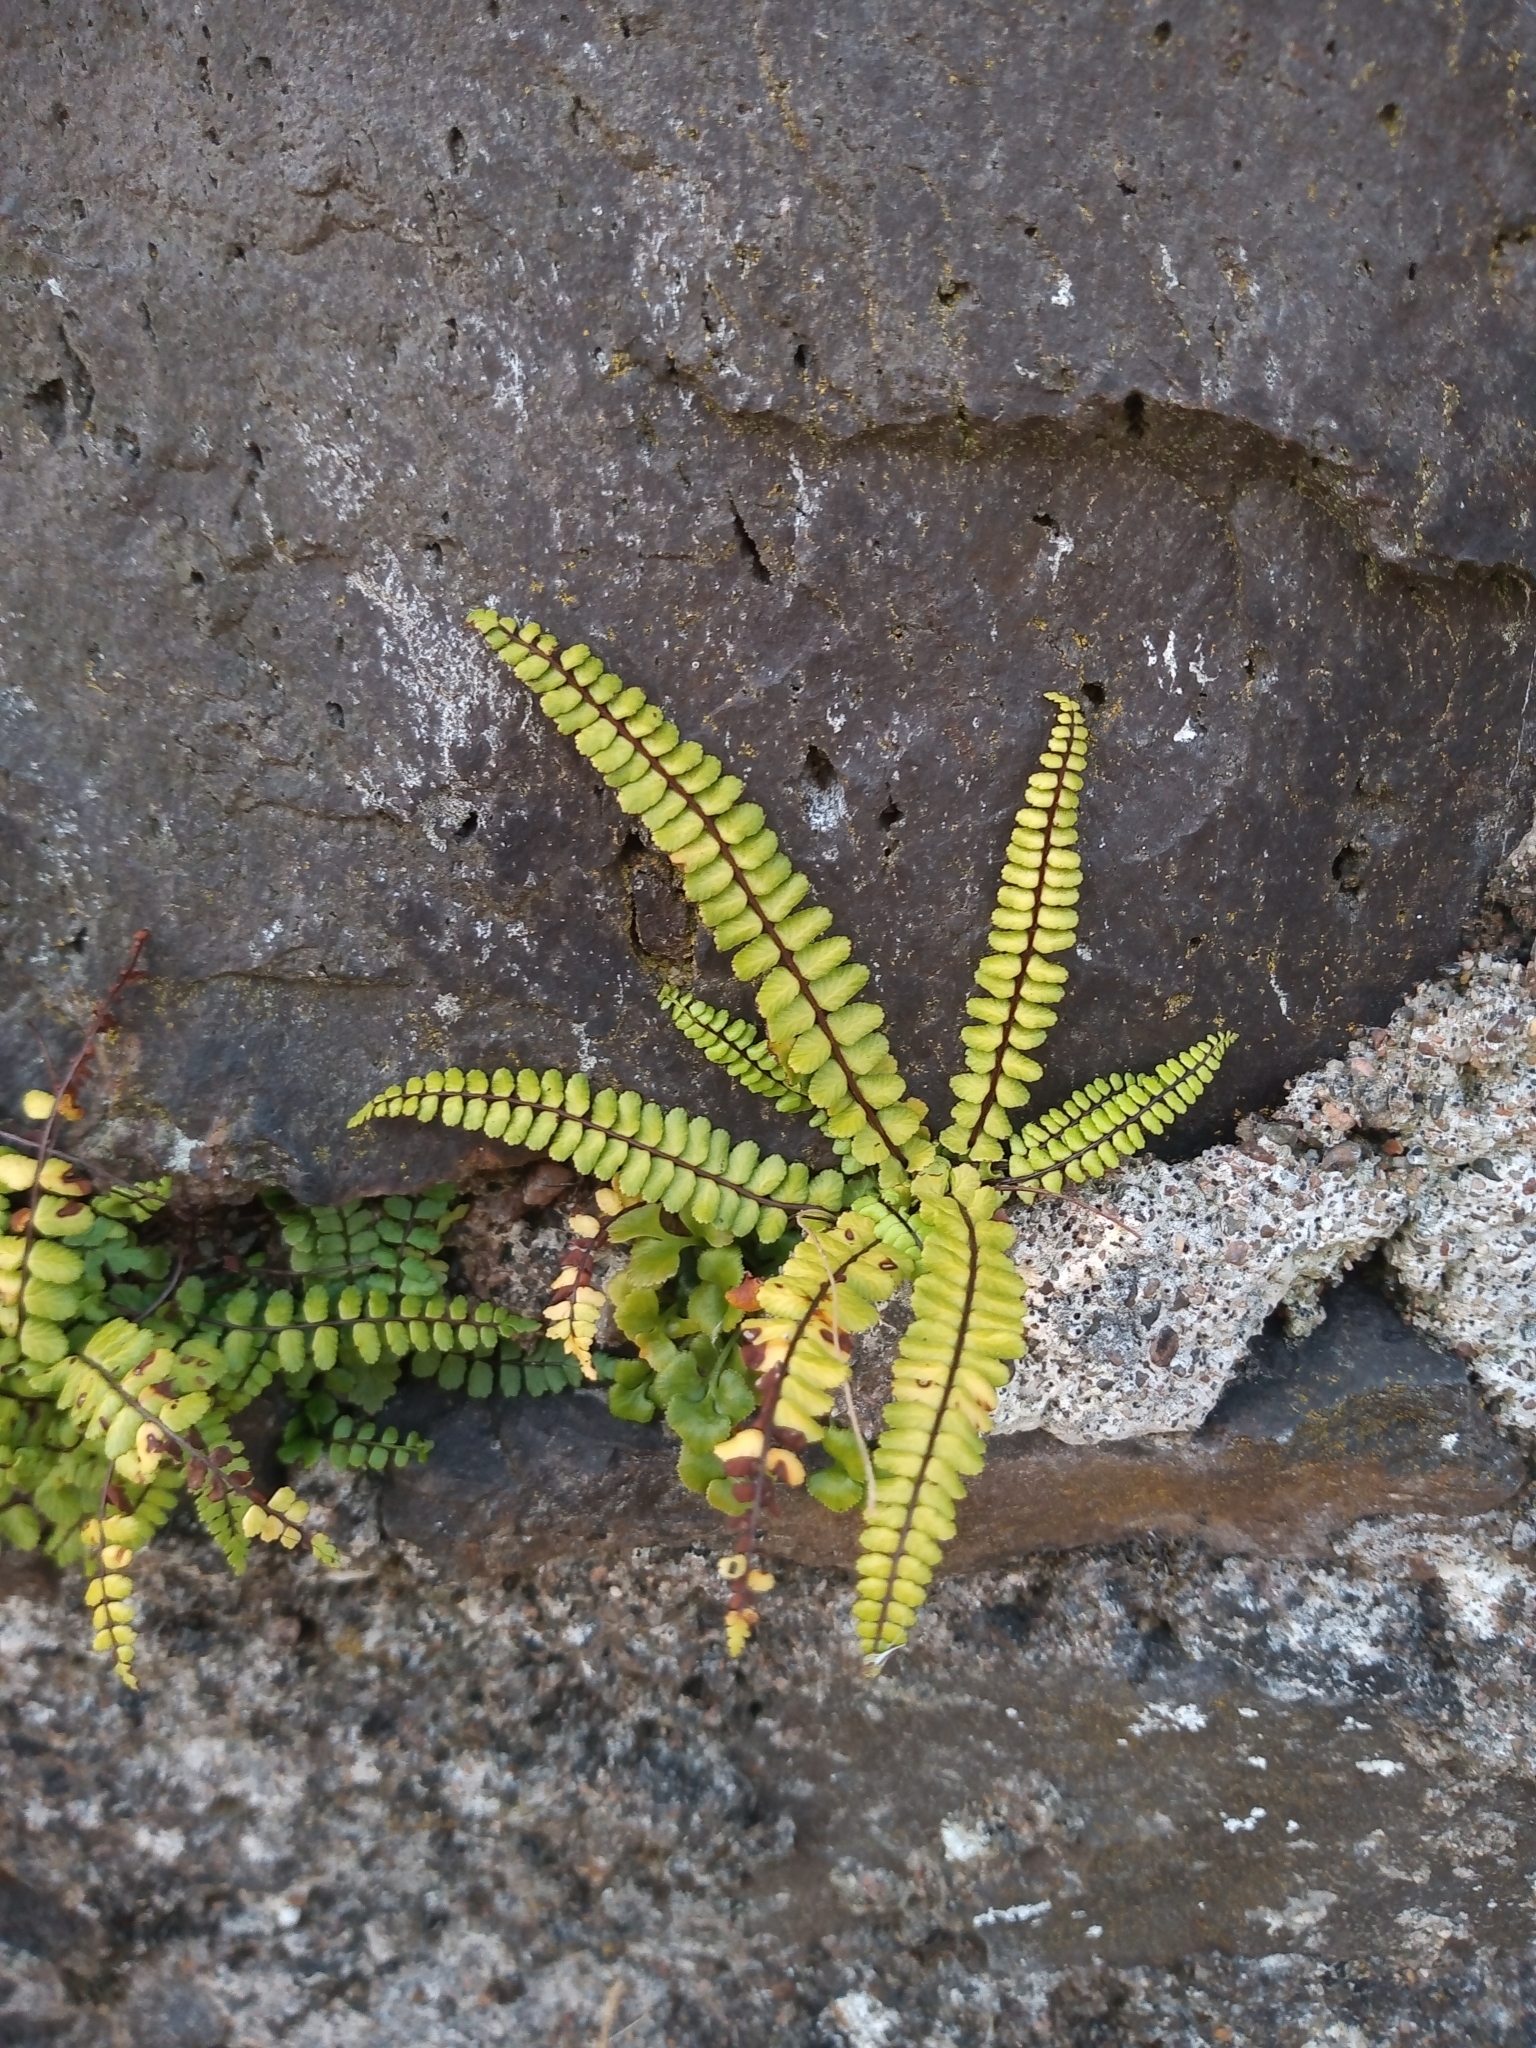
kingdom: Plantae
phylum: Tracheophyta
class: Polypodiopsida
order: Polypodiales
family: Aspleniaceae
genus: Asplenium
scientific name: Asplenium trichomanes
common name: Maidenhair spleenwort
